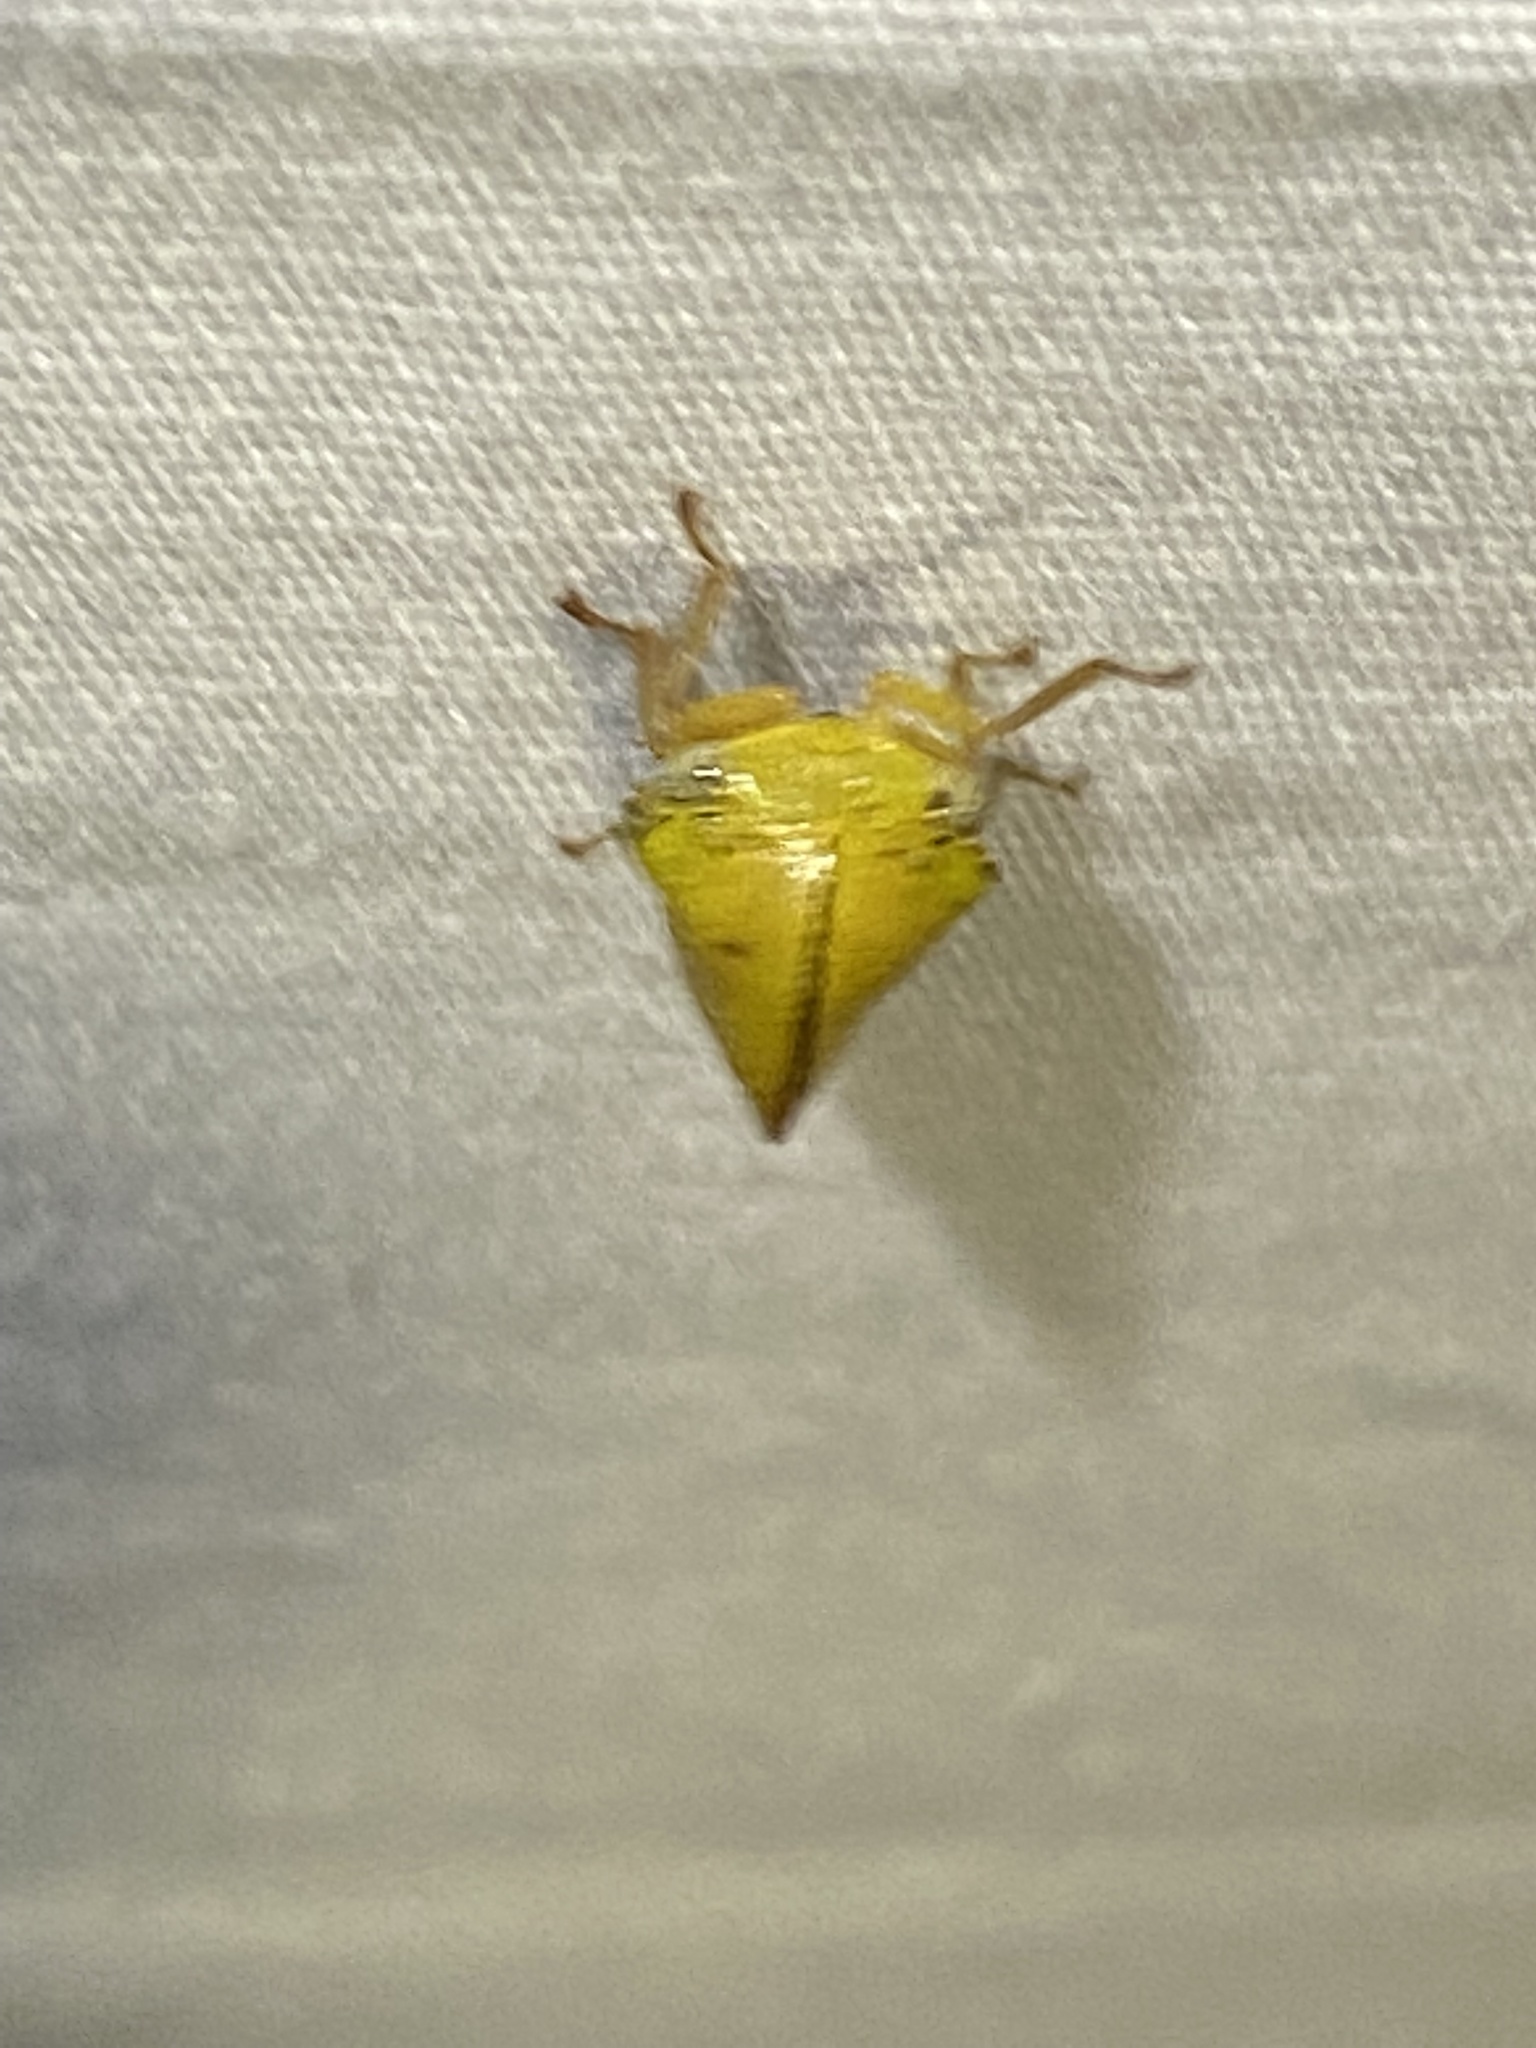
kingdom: Animalia
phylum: Arthropoda
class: Insecta
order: Hemiptera
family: Membracidae
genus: Archasia
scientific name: Archasia pallida
